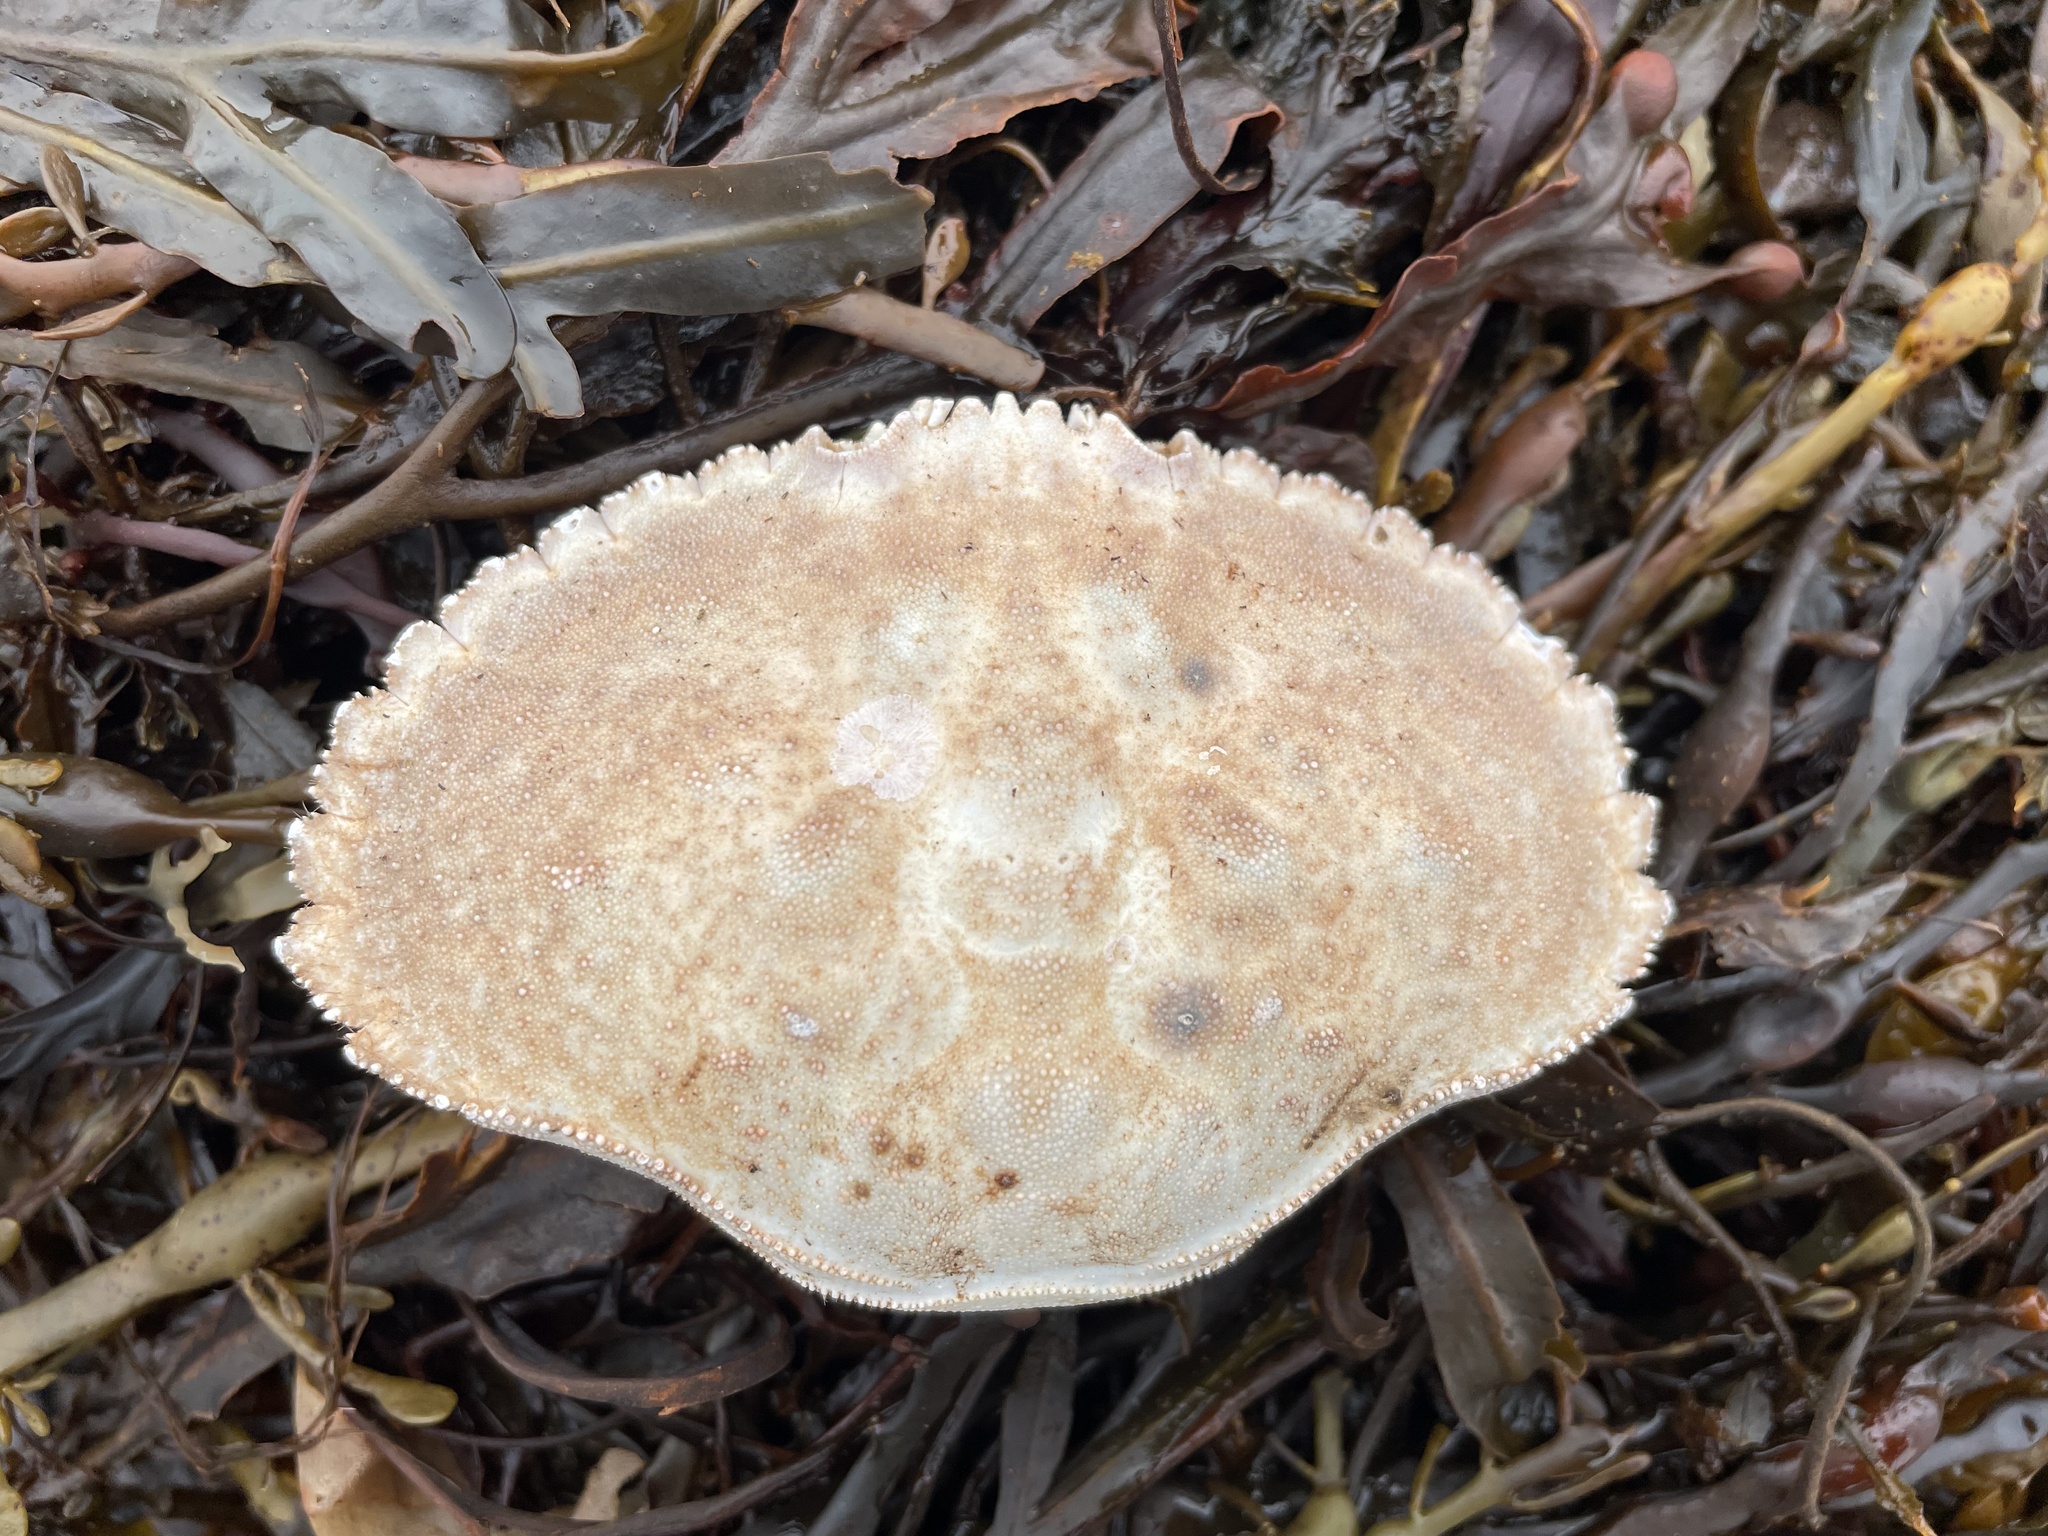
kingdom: Animalia
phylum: Arthropoda
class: Malacostraca
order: Decapoda
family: Cancridae
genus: Cancer
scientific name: Cancer borealis
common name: Jonah crab
